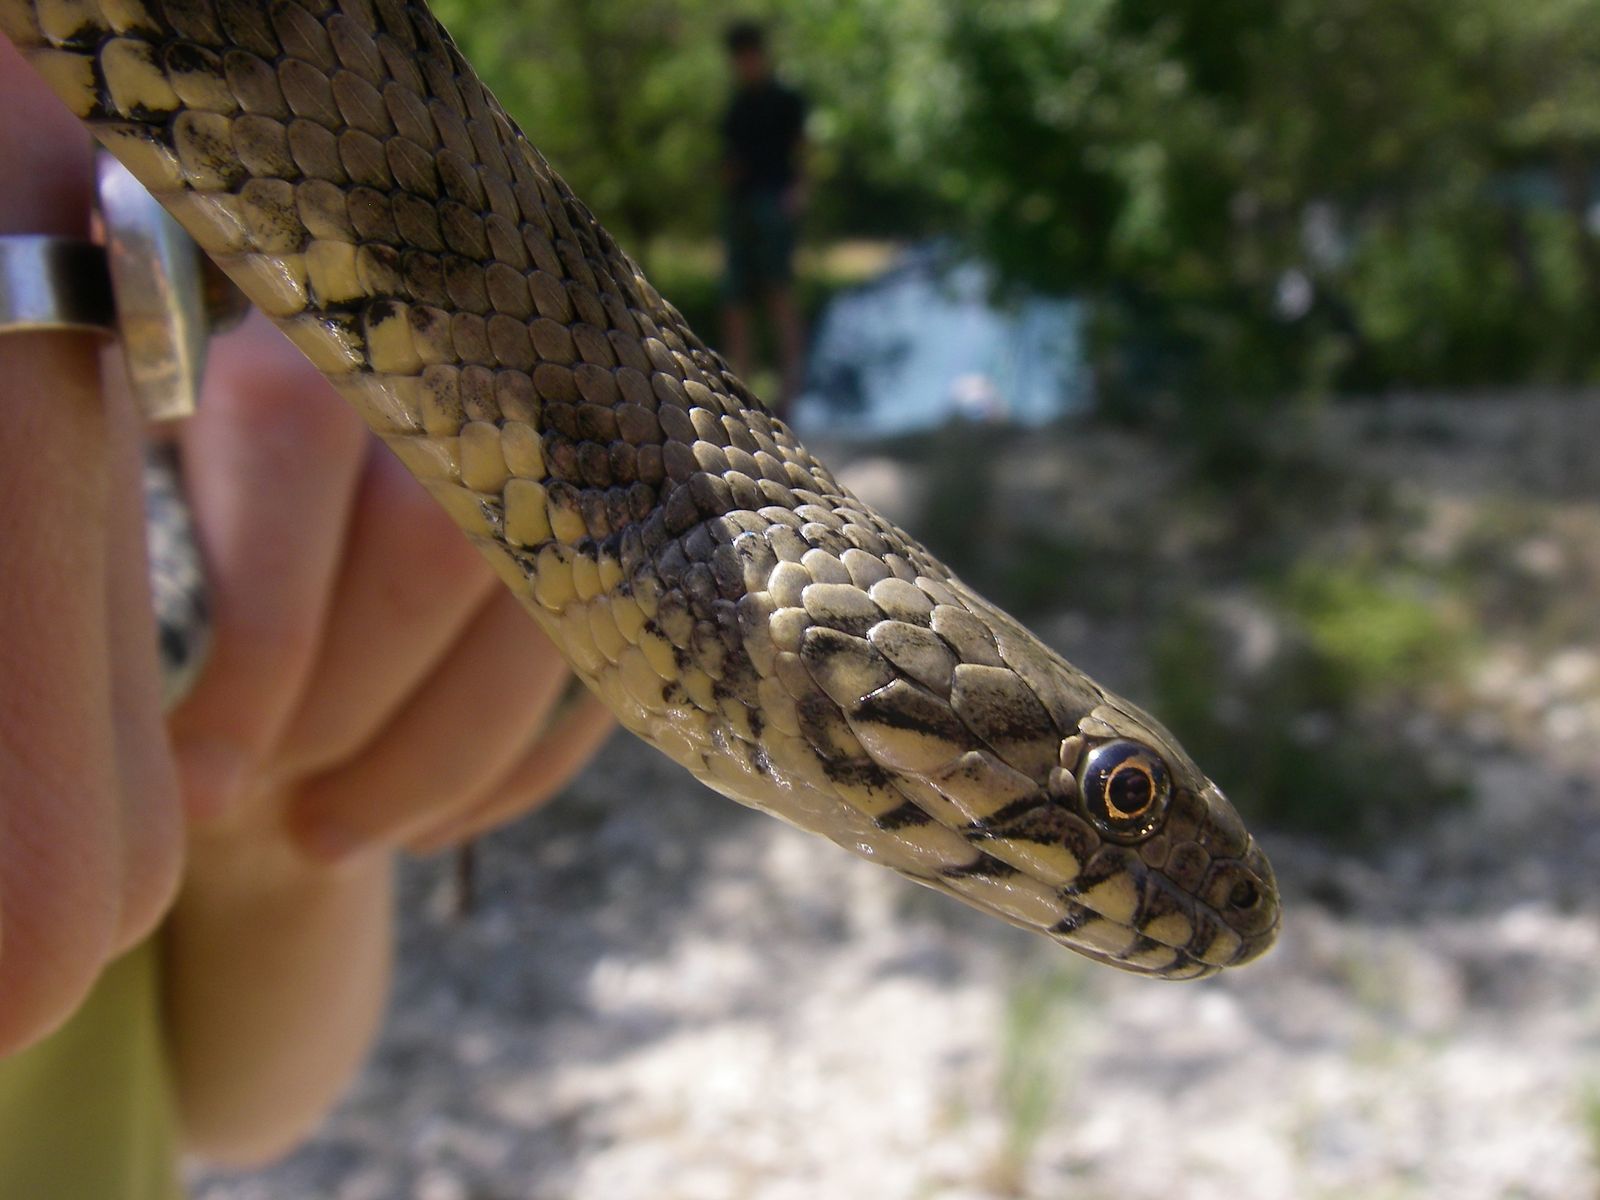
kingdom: Animalia
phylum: Chordata
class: Squamata
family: Colubridae
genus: Natrix
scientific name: Natrix maura
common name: Viperine water snake
